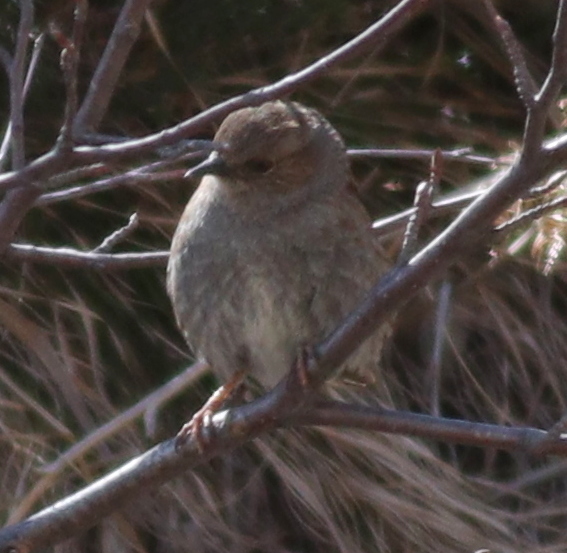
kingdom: Animalia
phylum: Chordata
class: Aves
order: Passeriformes
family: Prunellidae
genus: Prunella
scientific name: Prunella modularis
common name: Dunnock
